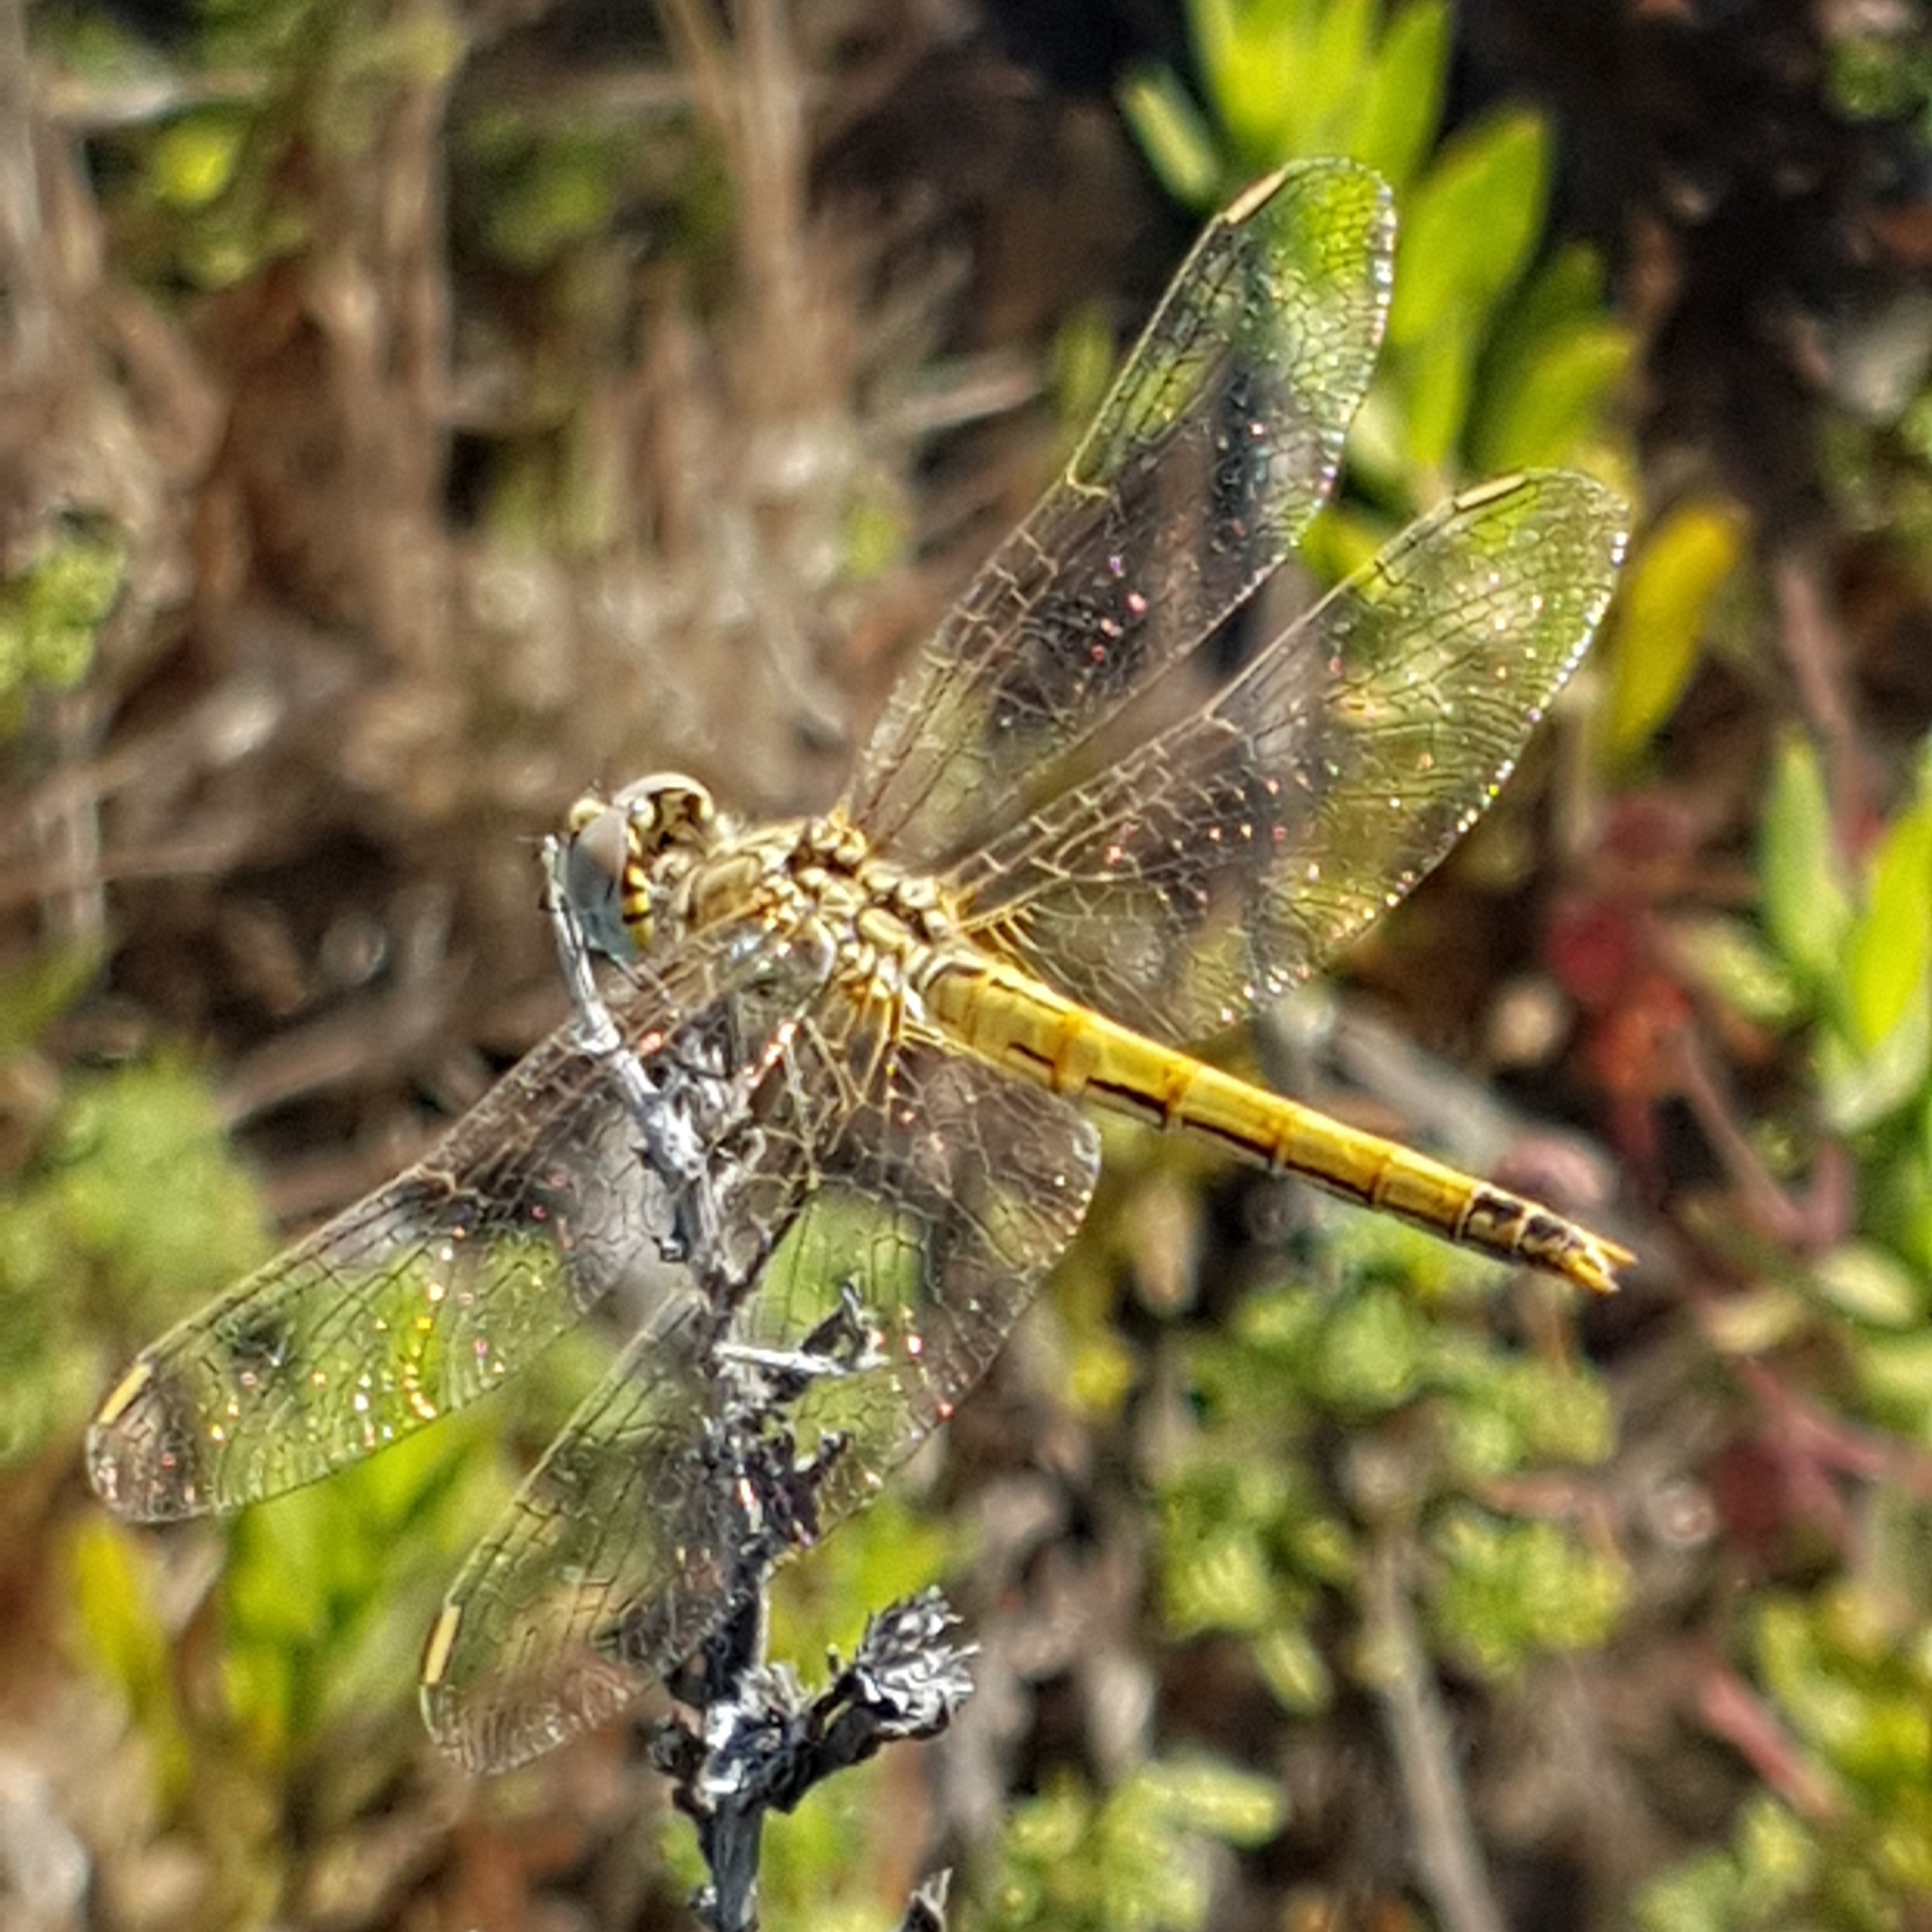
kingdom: Animalia
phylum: Arthropoda
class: Insecta
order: Odonata
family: Libellulidae
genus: Sympetrum
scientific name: Sympetrum fonscolombii
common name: Red-veined darter
